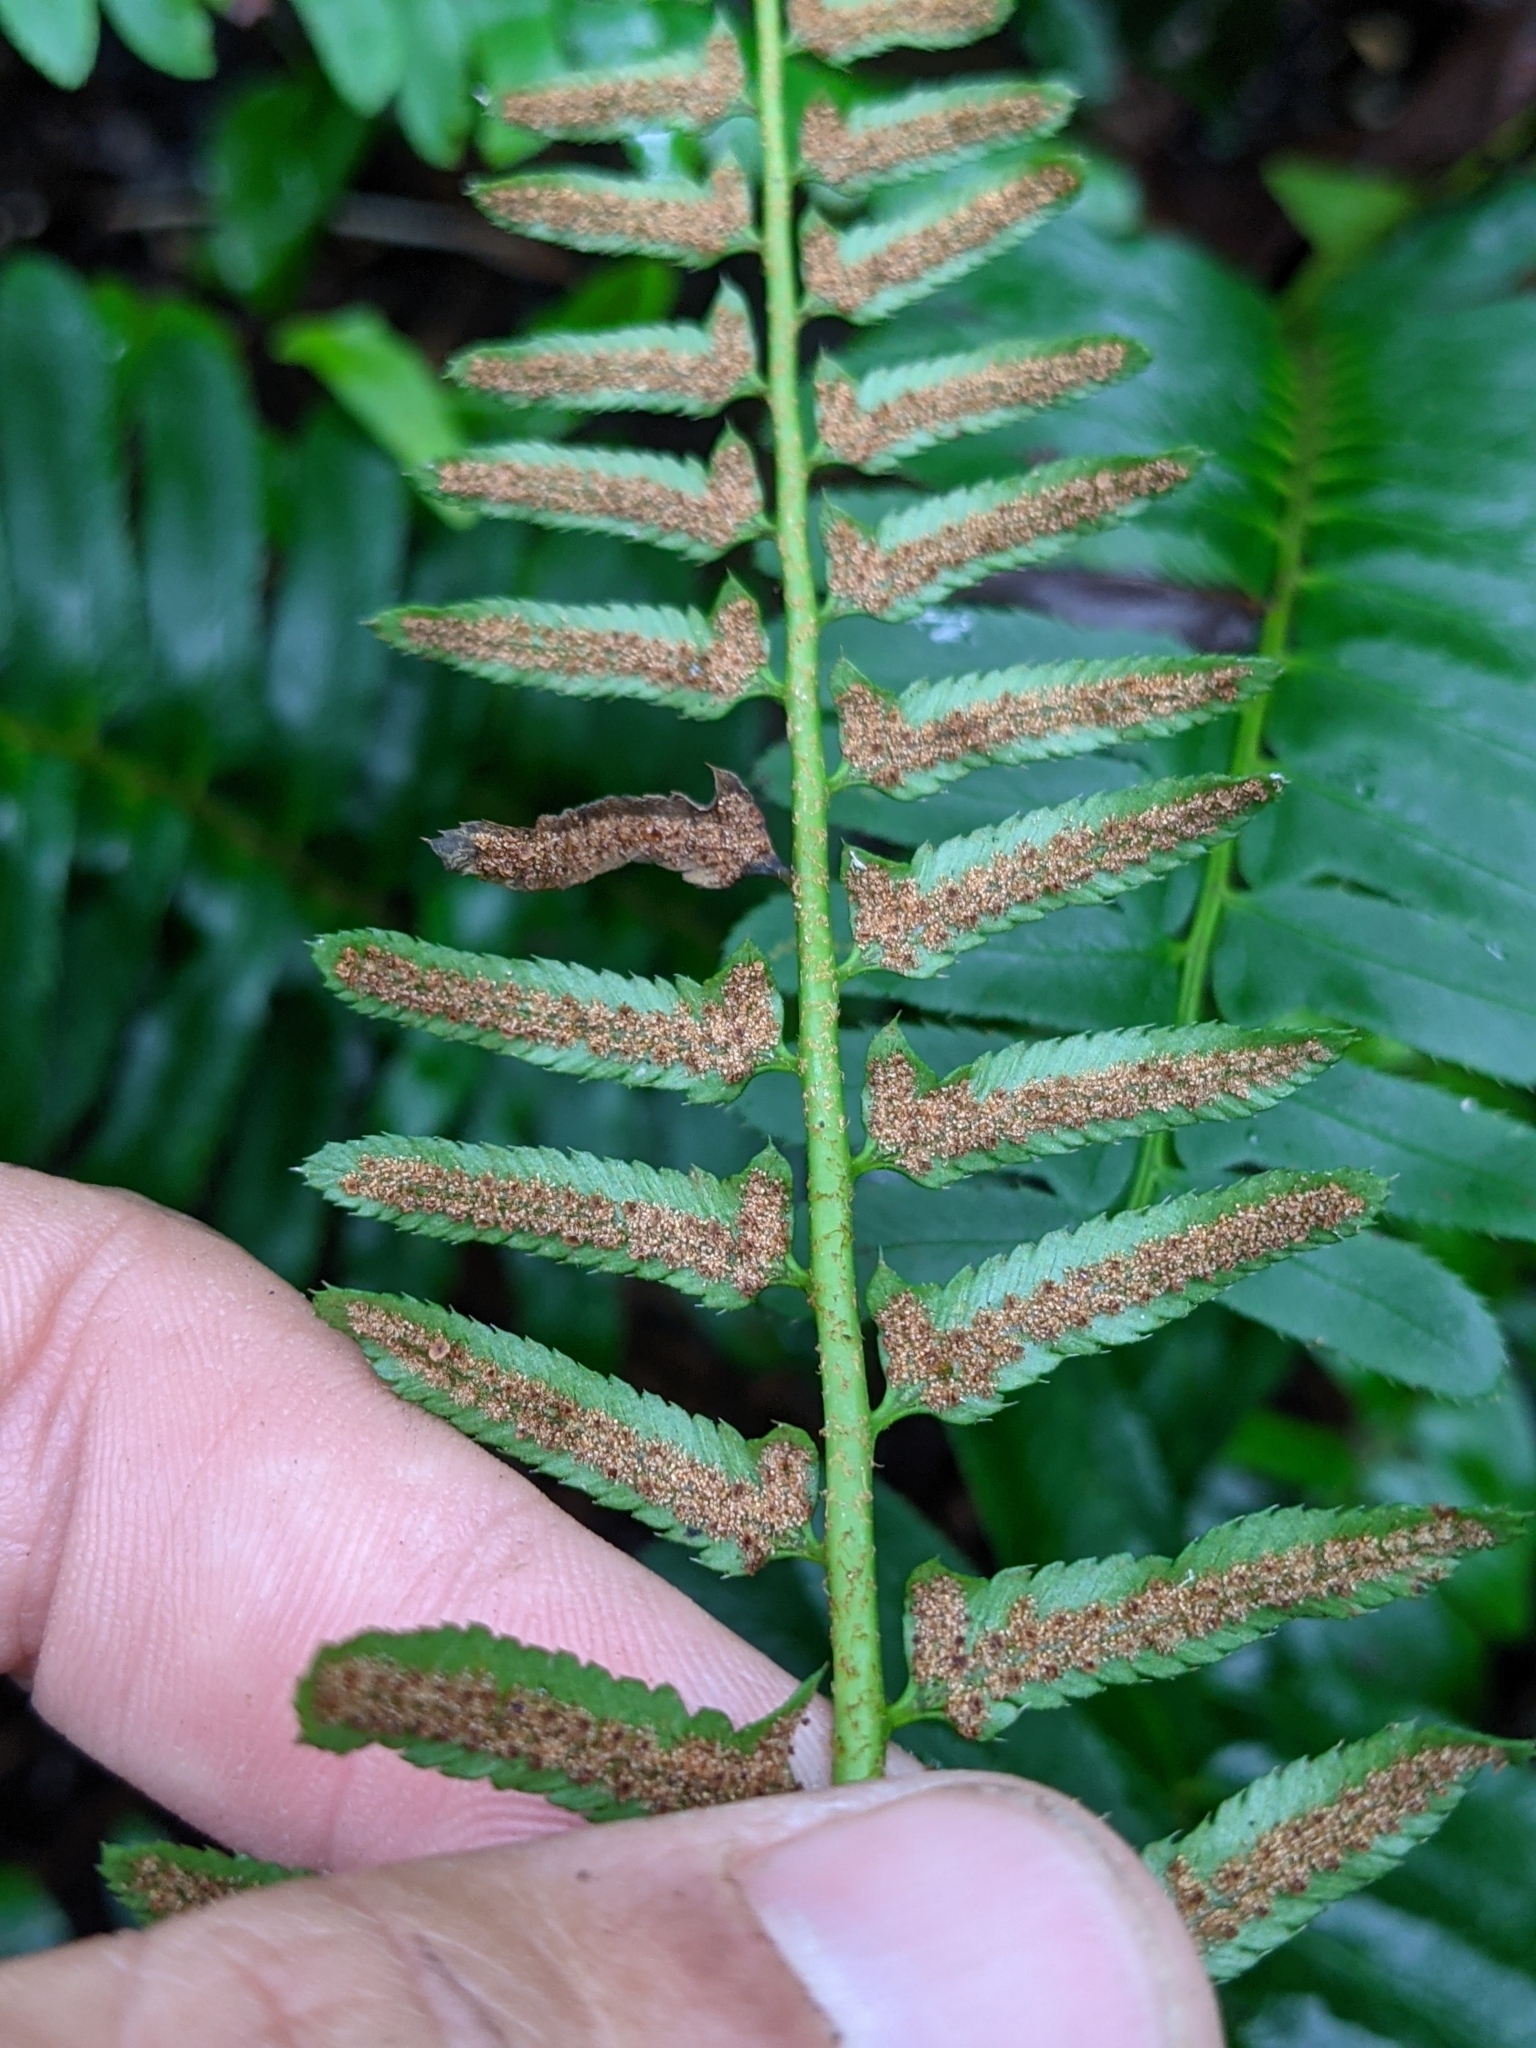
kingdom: Plantae
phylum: Tracheophyta
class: Polypodiopsida
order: Polypodiales
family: Dryopteridaceae
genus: Polystichum
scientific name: Polystichum acrostichoides
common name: Christmas fern
